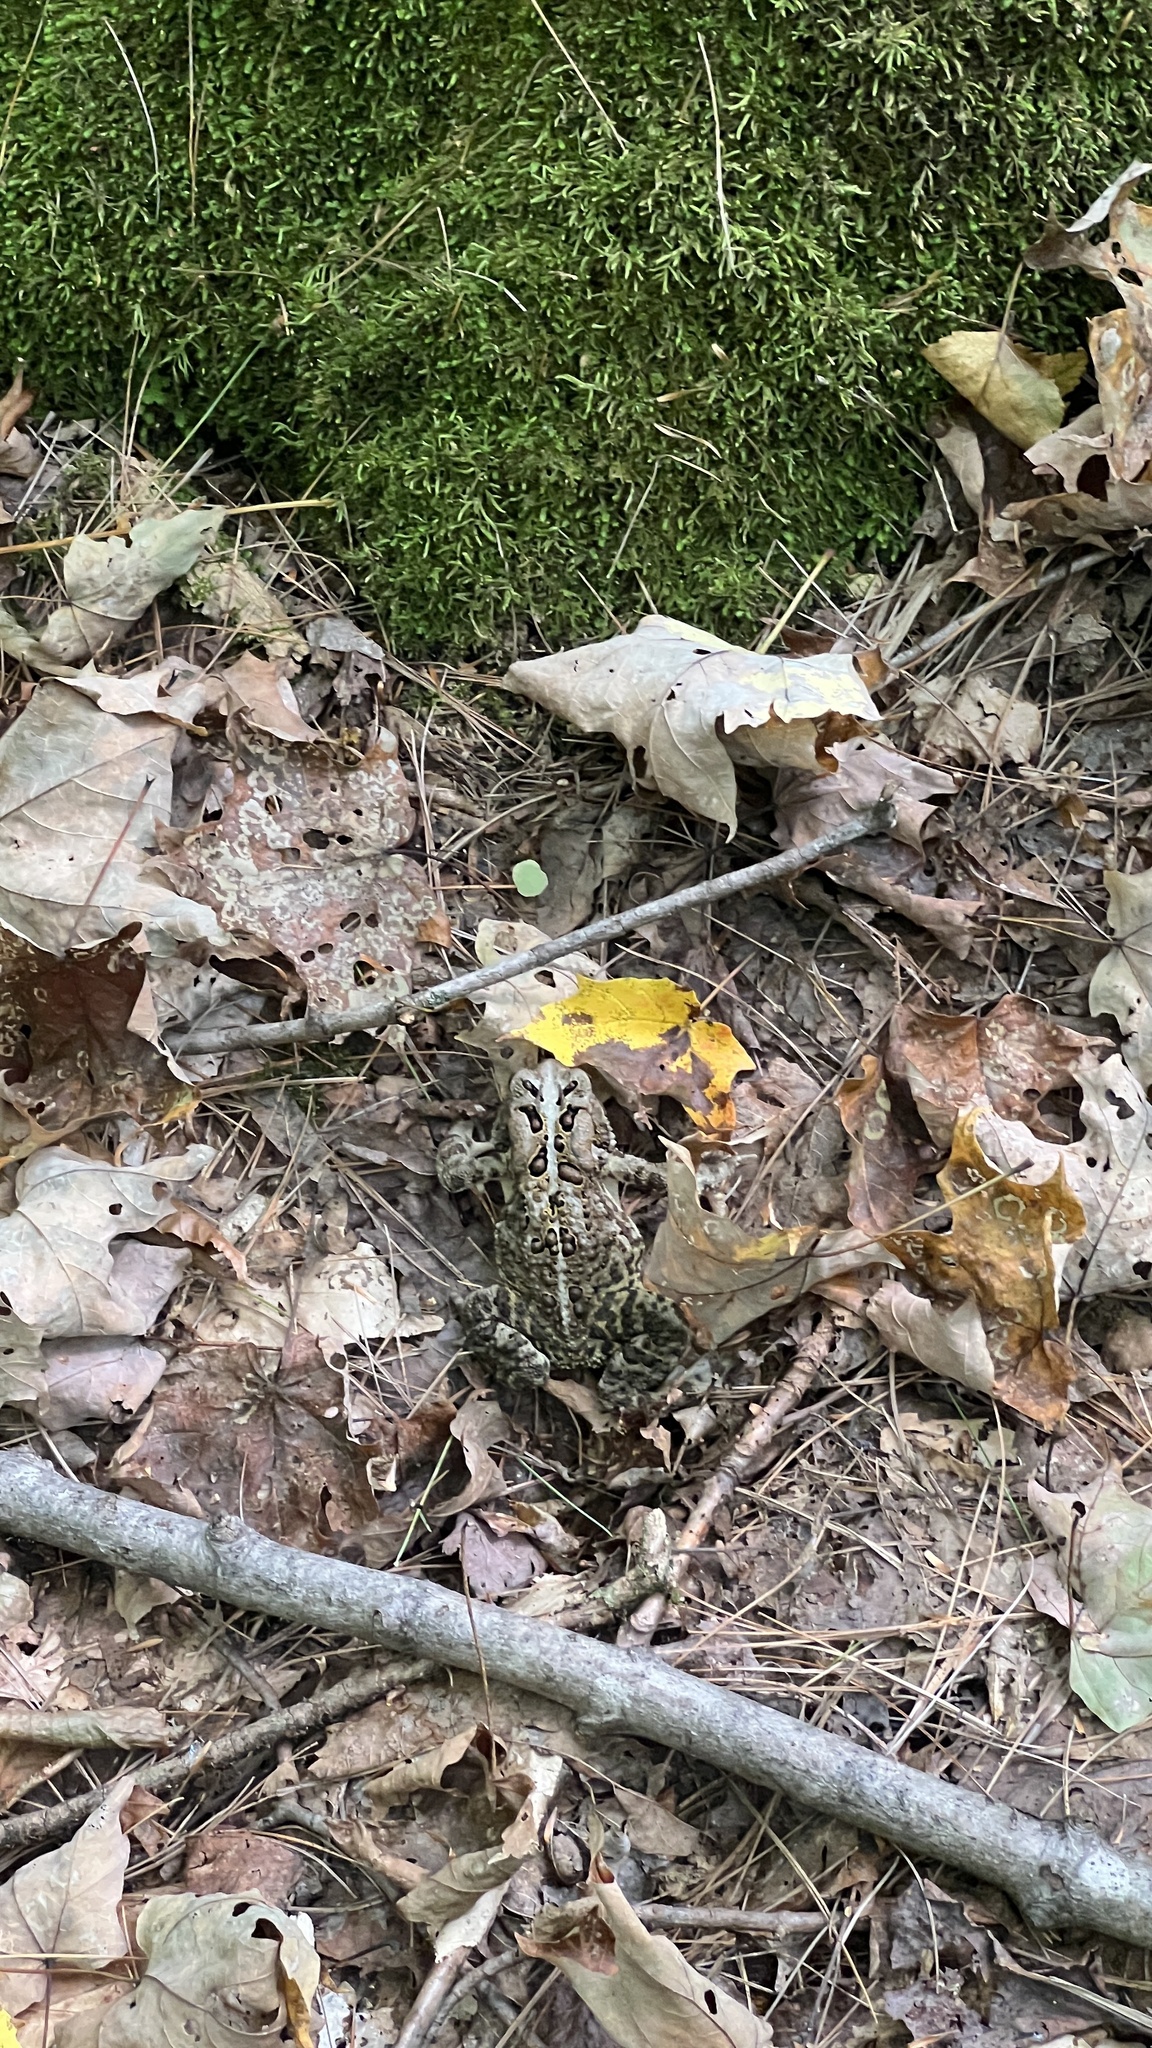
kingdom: Animalia
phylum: Chordata
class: Amphibia
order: Anura
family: Bufonidae
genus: Anaxyrus
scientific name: Anaxyrus americanus
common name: American toad
